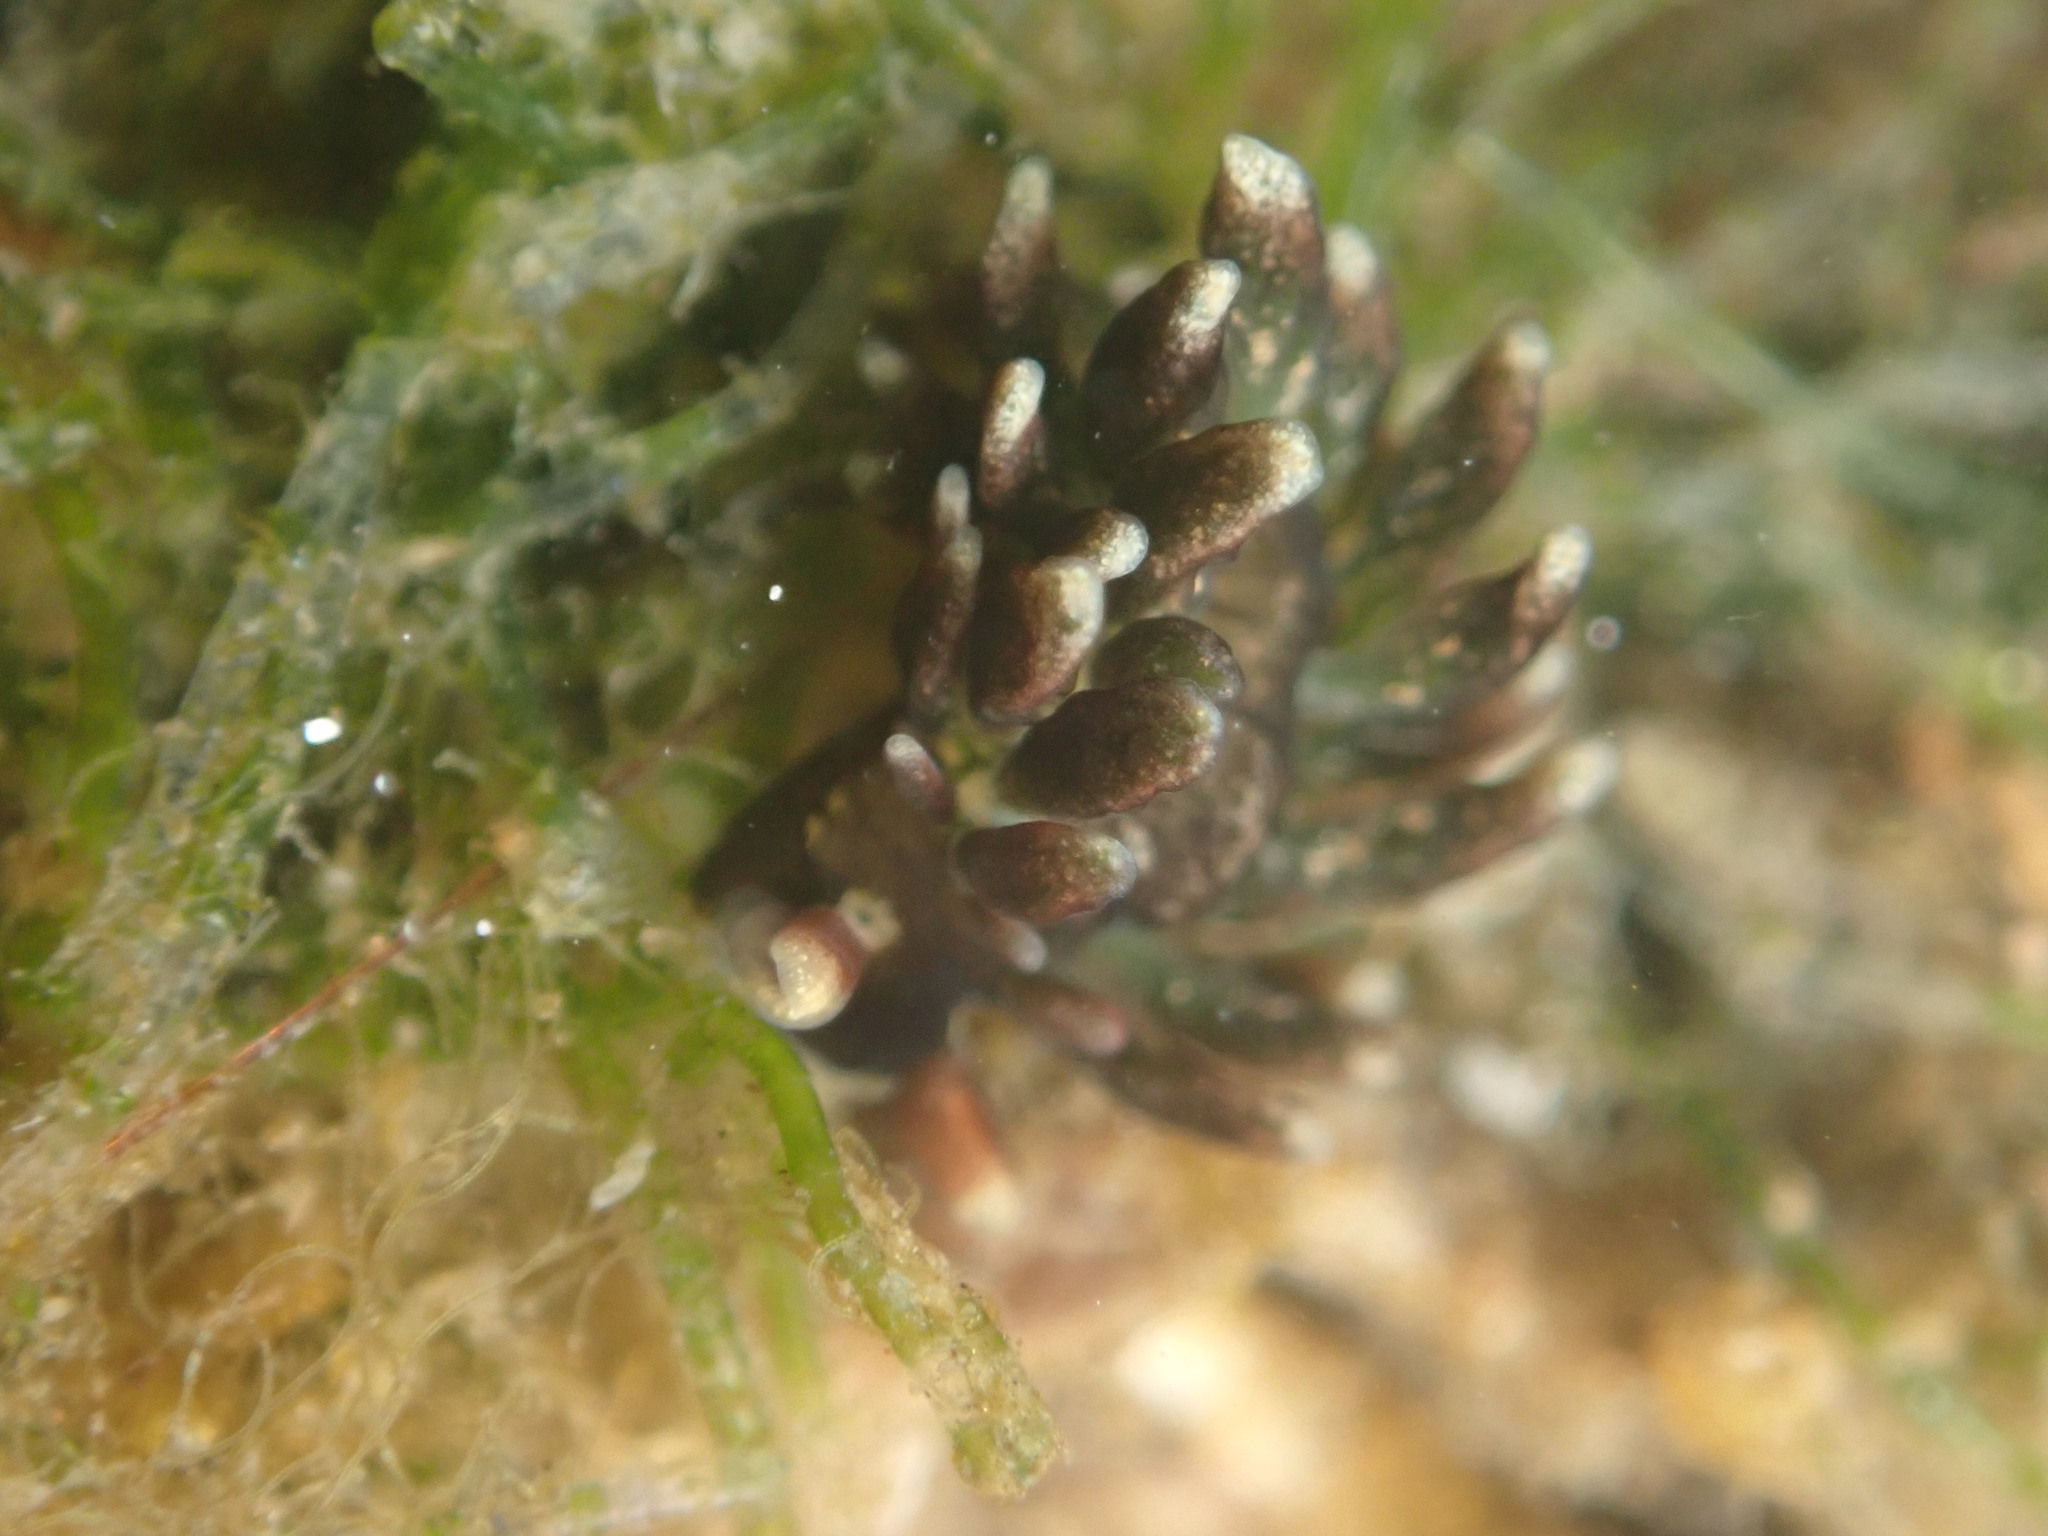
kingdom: Animalia
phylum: Mollusca
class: Gastropoda
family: Hermaeidae
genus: Aplysiopsis
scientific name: Aplysiopsis enteromorphae
